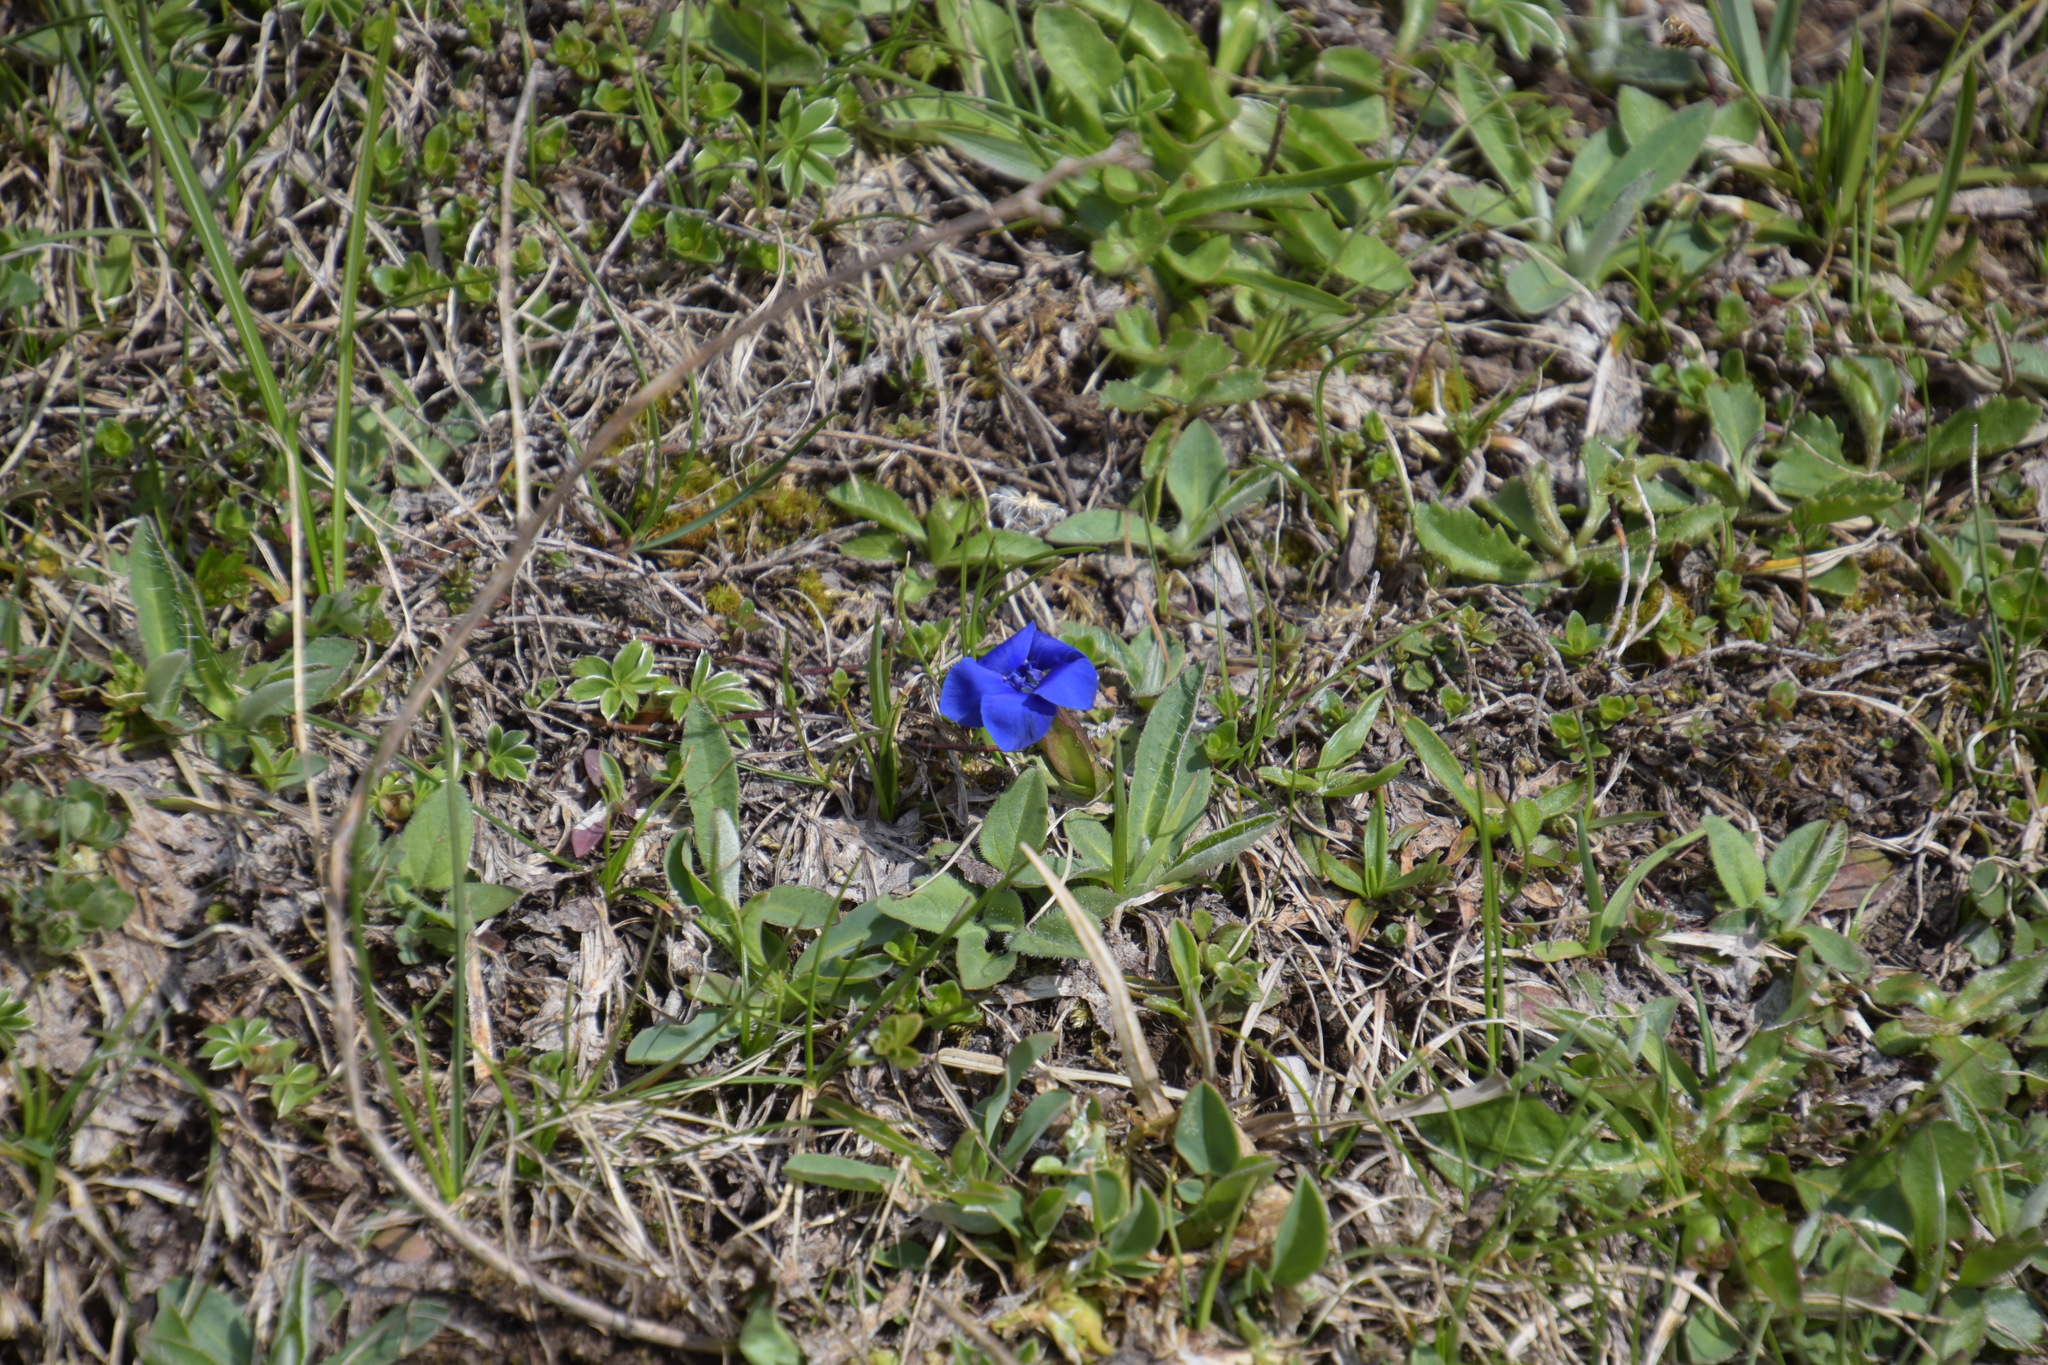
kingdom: Plantae
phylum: Tracheophyta
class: Magnoliopsida
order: Gentianales
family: Gentianaceae
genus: Gentiana
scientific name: Gentiana verna
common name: Spring gentian
